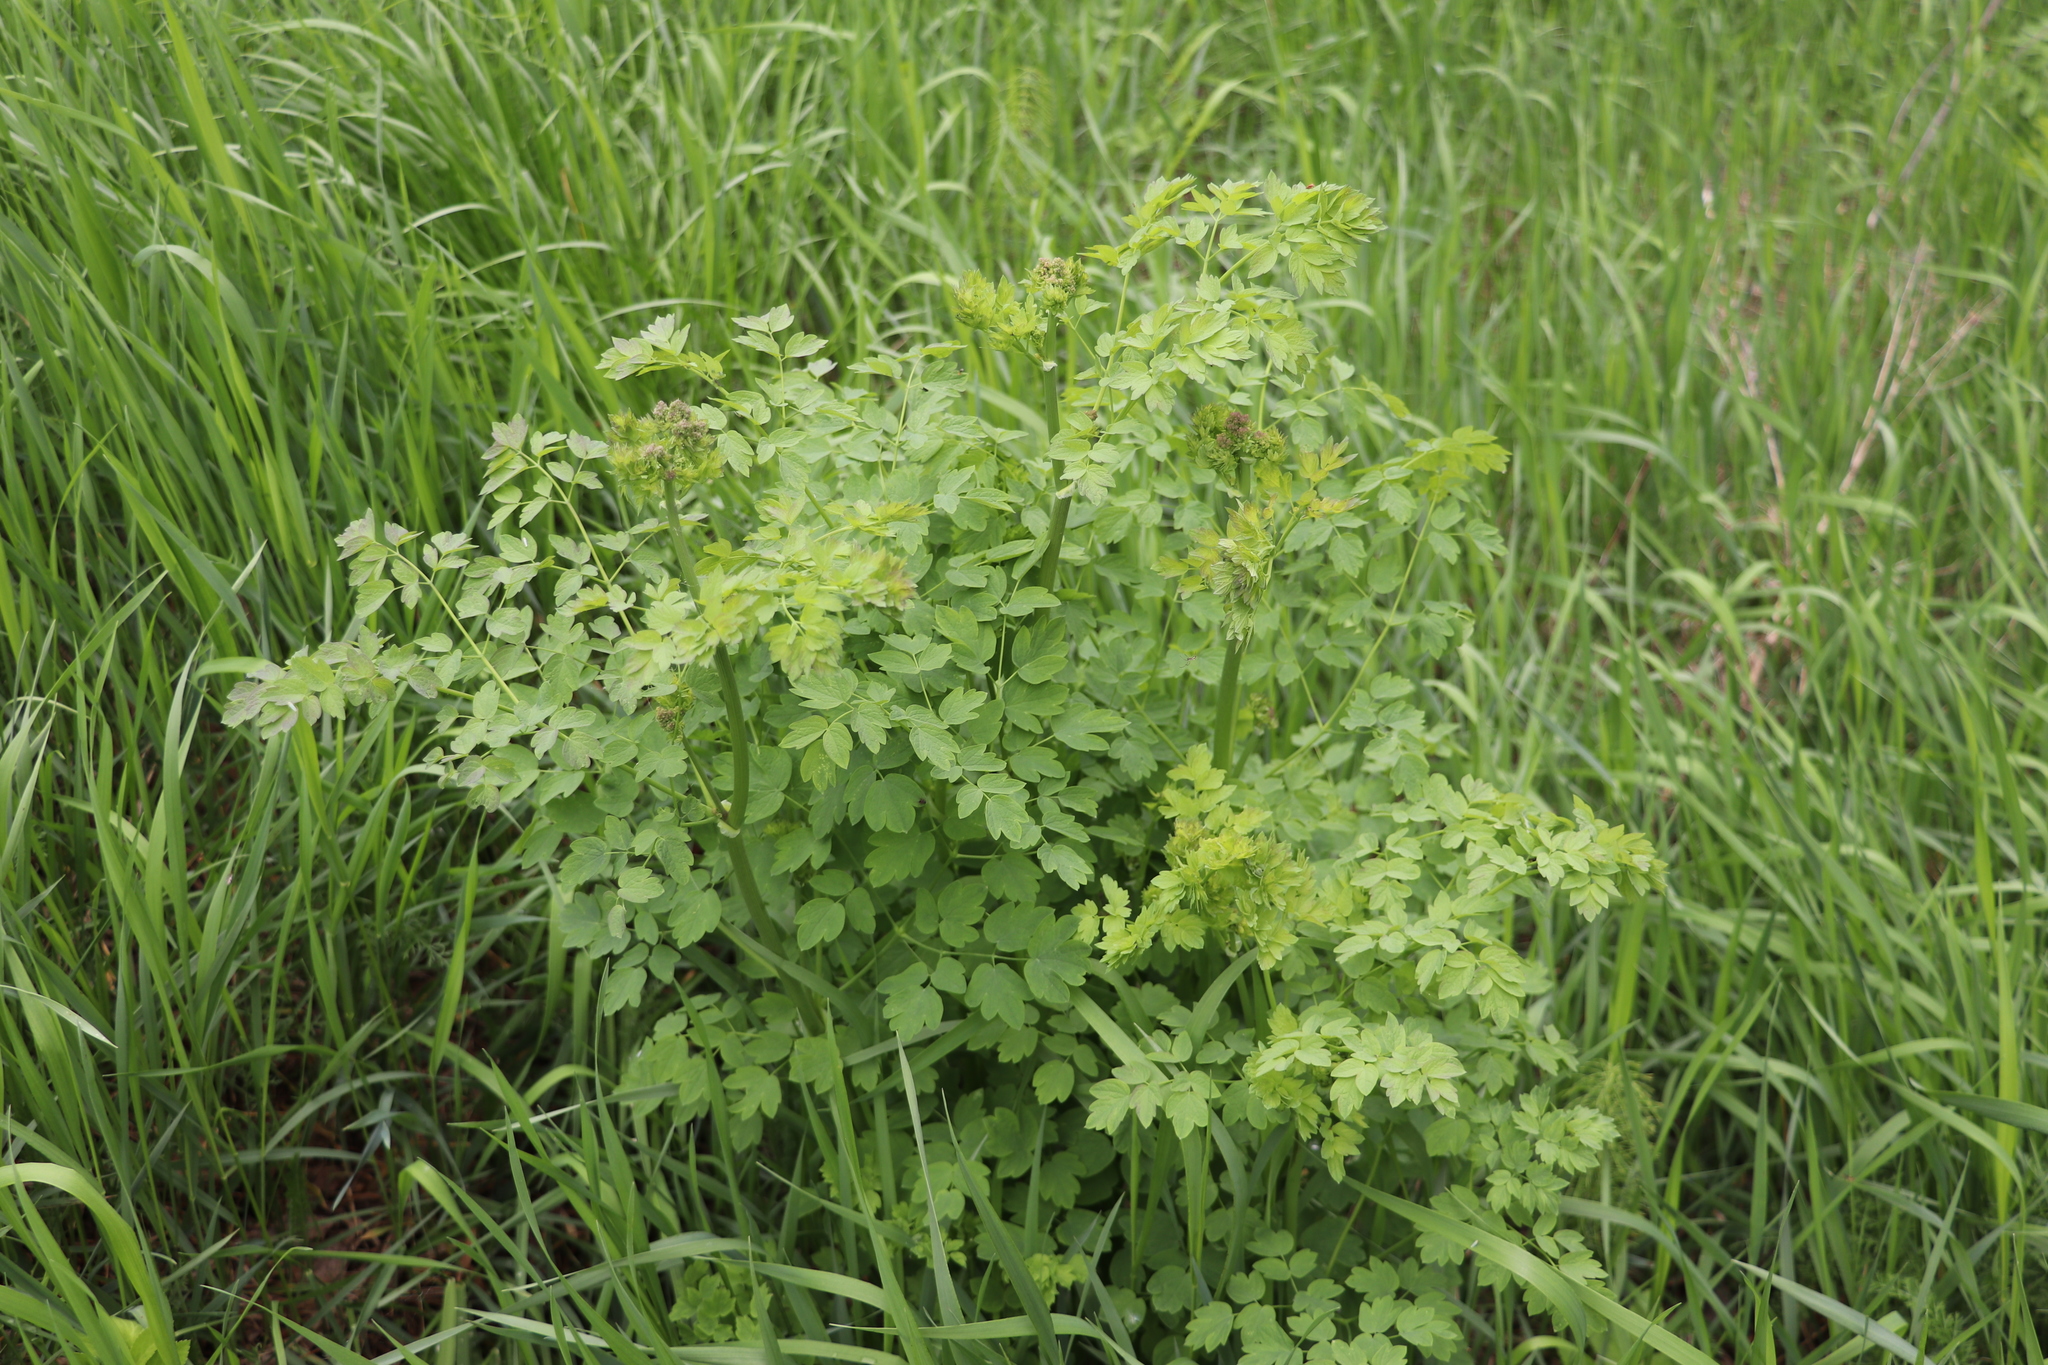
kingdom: Plantae
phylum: Tracheophyta
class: Magnoliopsida
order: Ranunculales
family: Ranunculaceae
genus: Thalictrum
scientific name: Thalictrum minus
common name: Lesser meadow-rue
